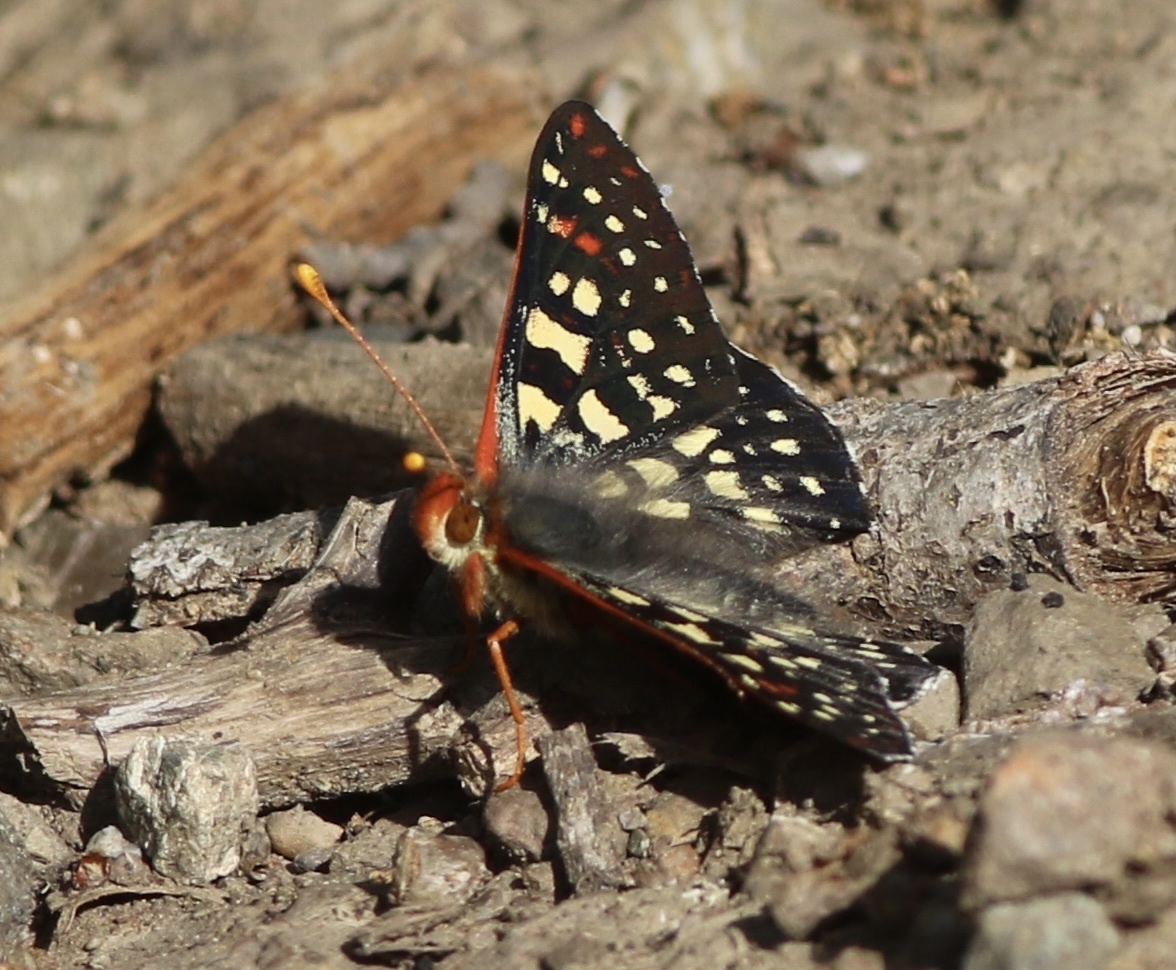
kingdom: Animalia
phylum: Arthropoda
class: Insecta
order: Lepidoptera
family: Nymphalidae
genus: Occidryas
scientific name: Occidryas chalcedona
